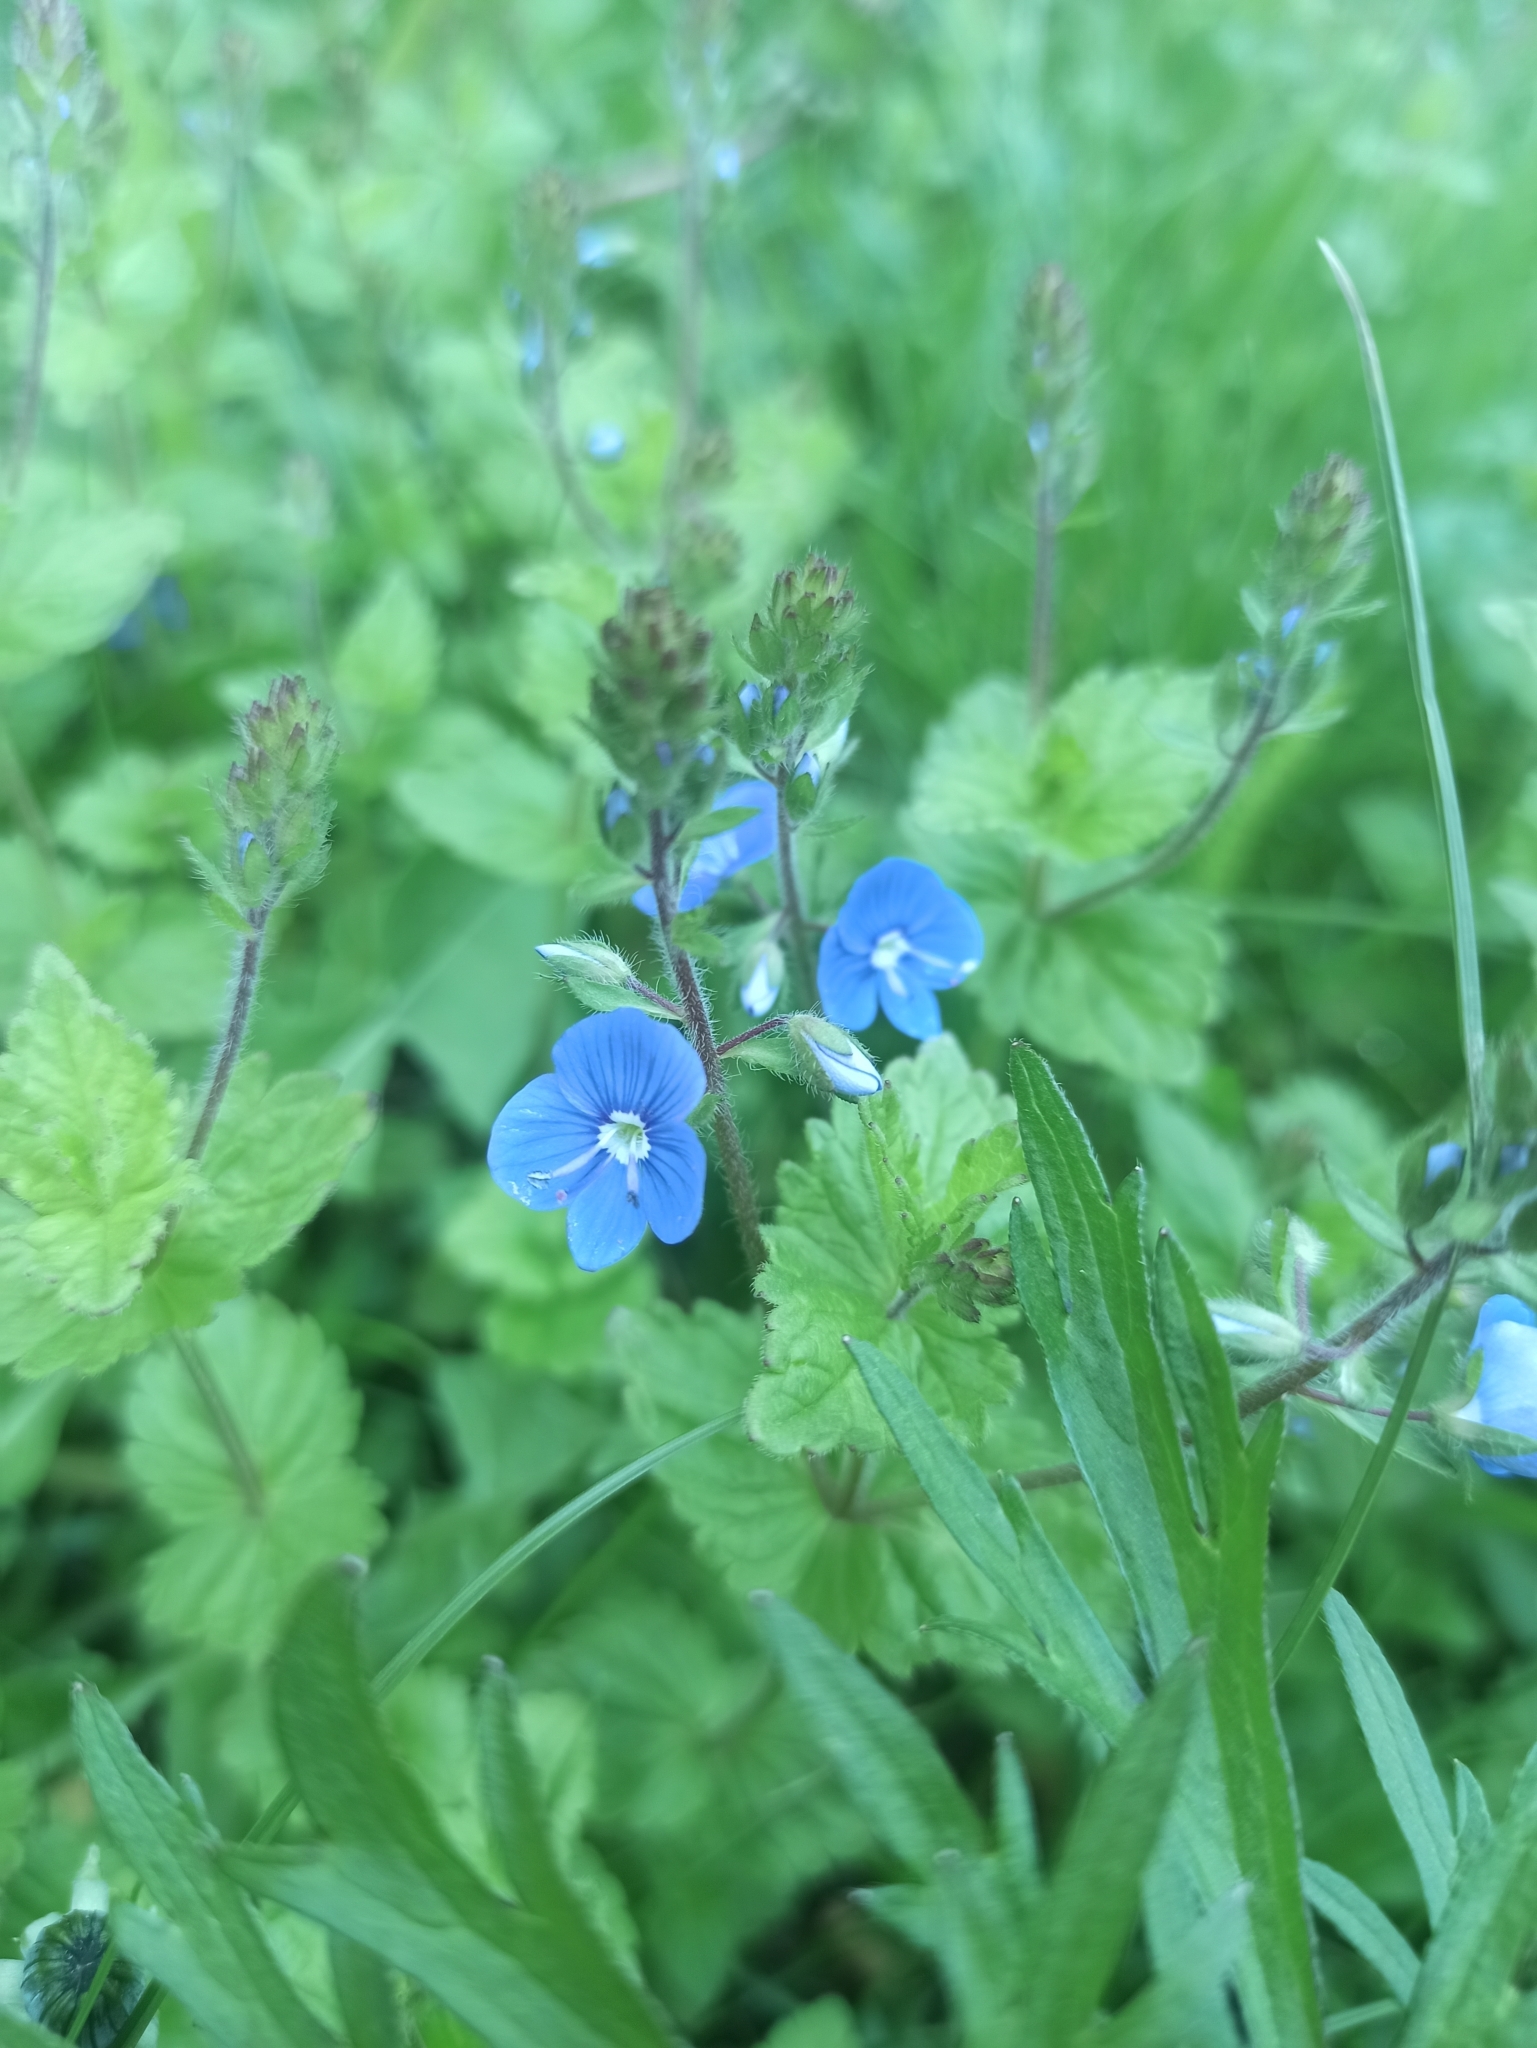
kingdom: Plantae
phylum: Tracheophyta
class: Magnoliopsida
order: Lamiales
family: Plantaginaceae
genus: Veronica
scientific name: Veronica chamaedrys
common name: Germander speedwell
